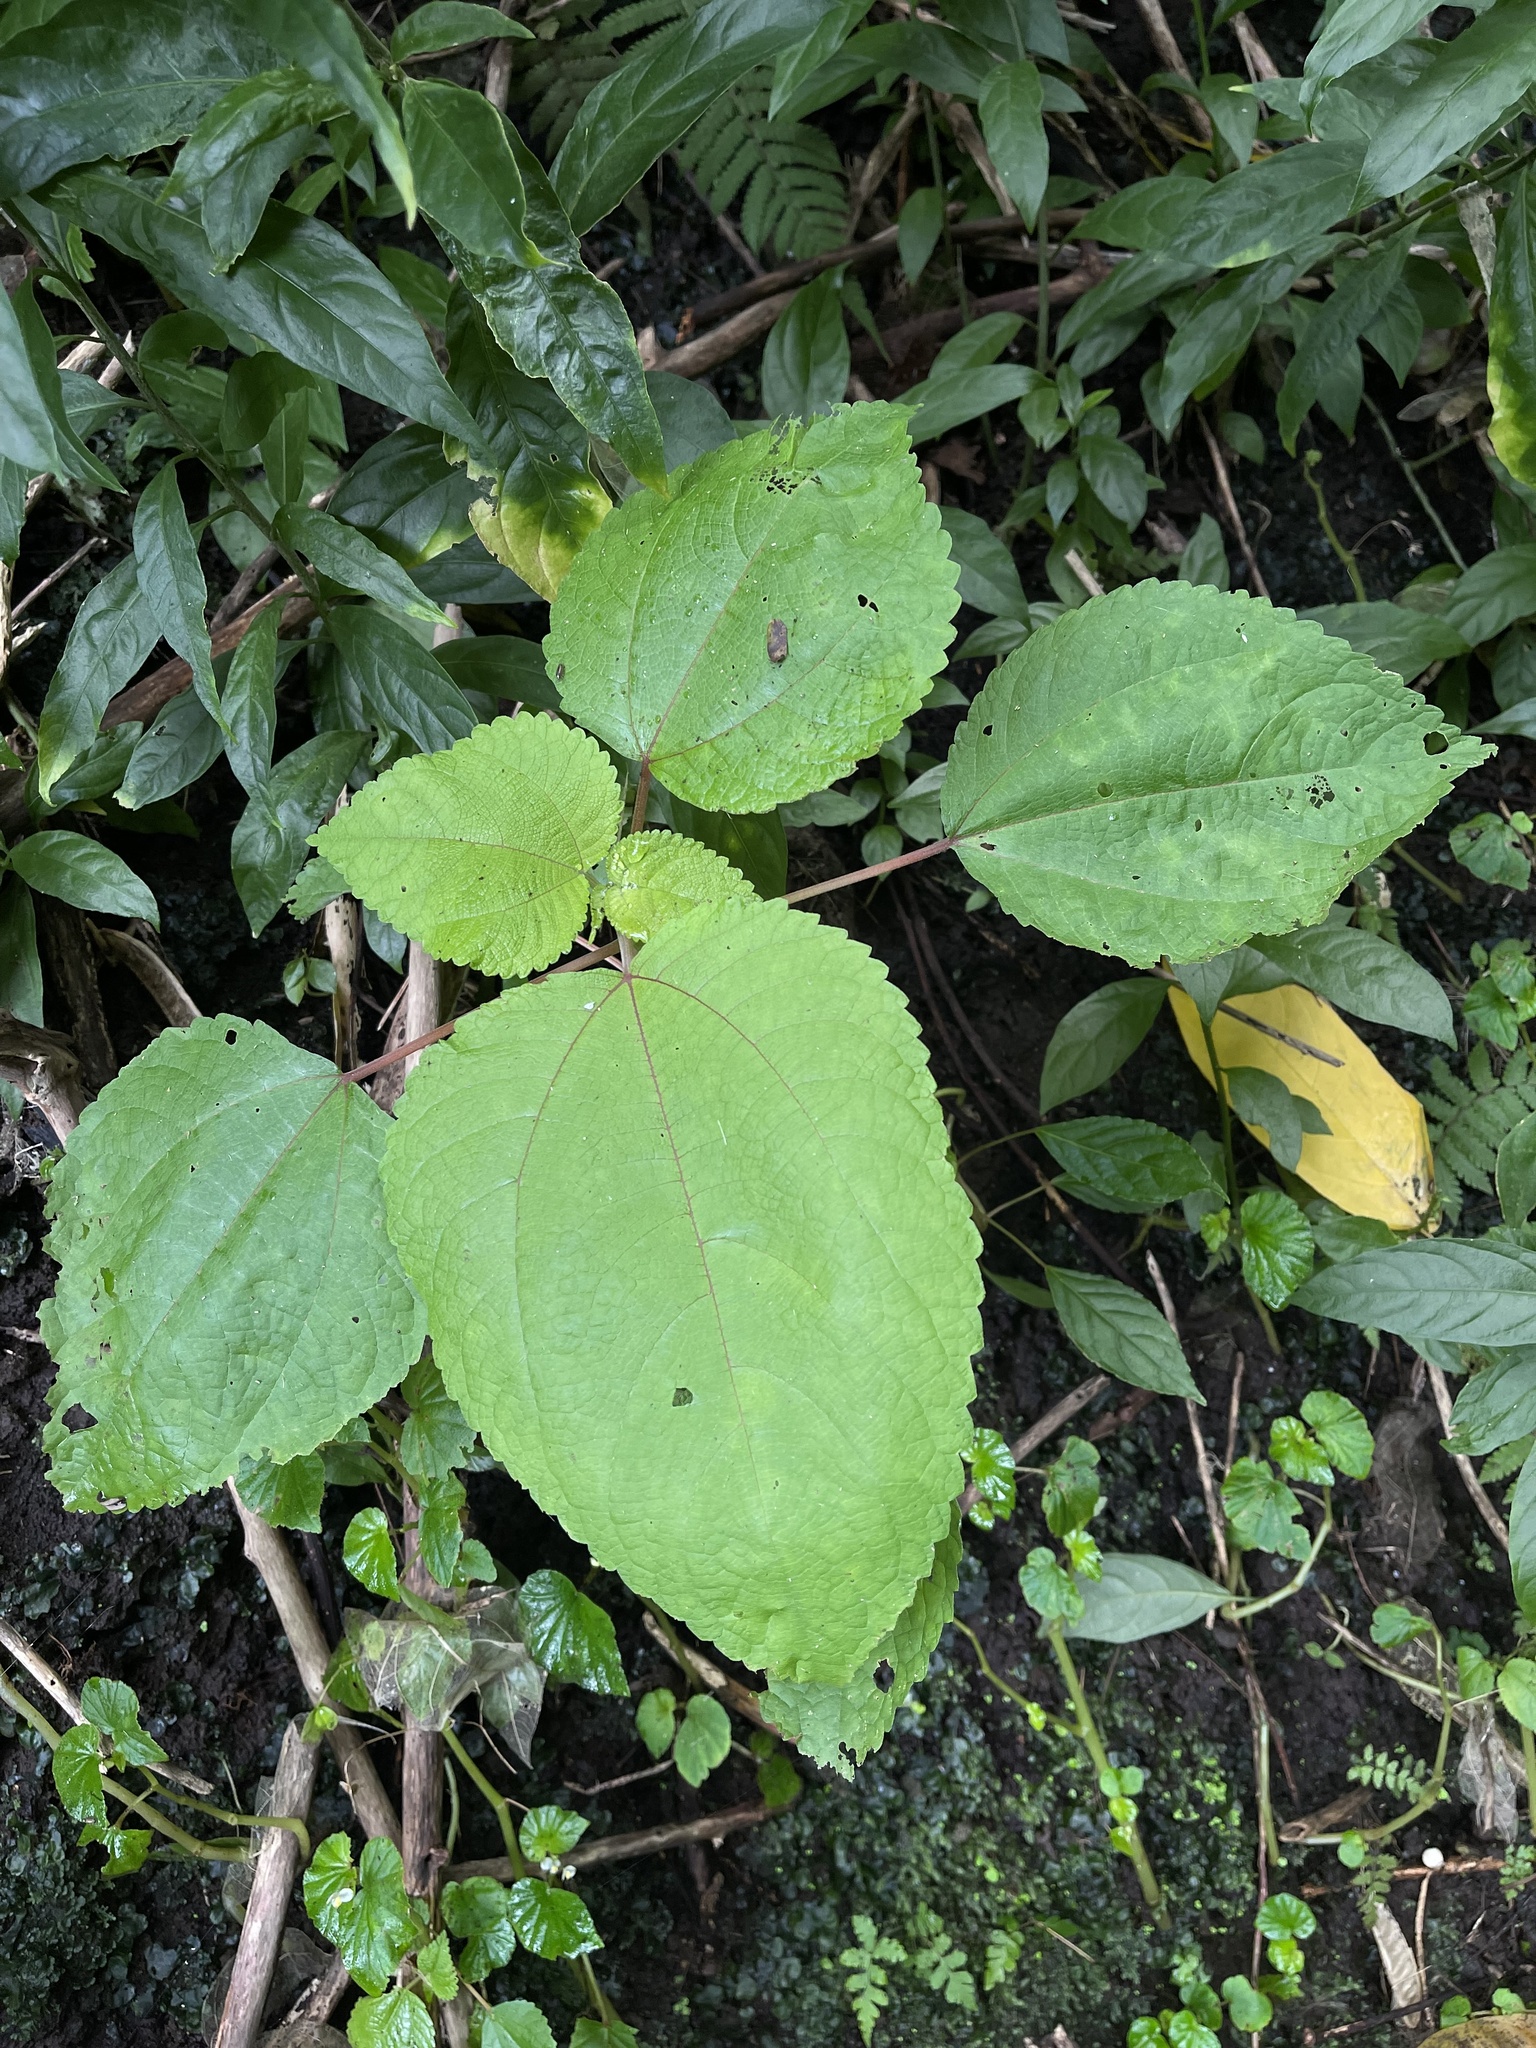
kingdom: Plantae
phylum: Tracheophyta
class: Magnoliopsida
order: Rosales
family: Urticaceae
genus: Pipturus
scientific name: Pipturus albidus
